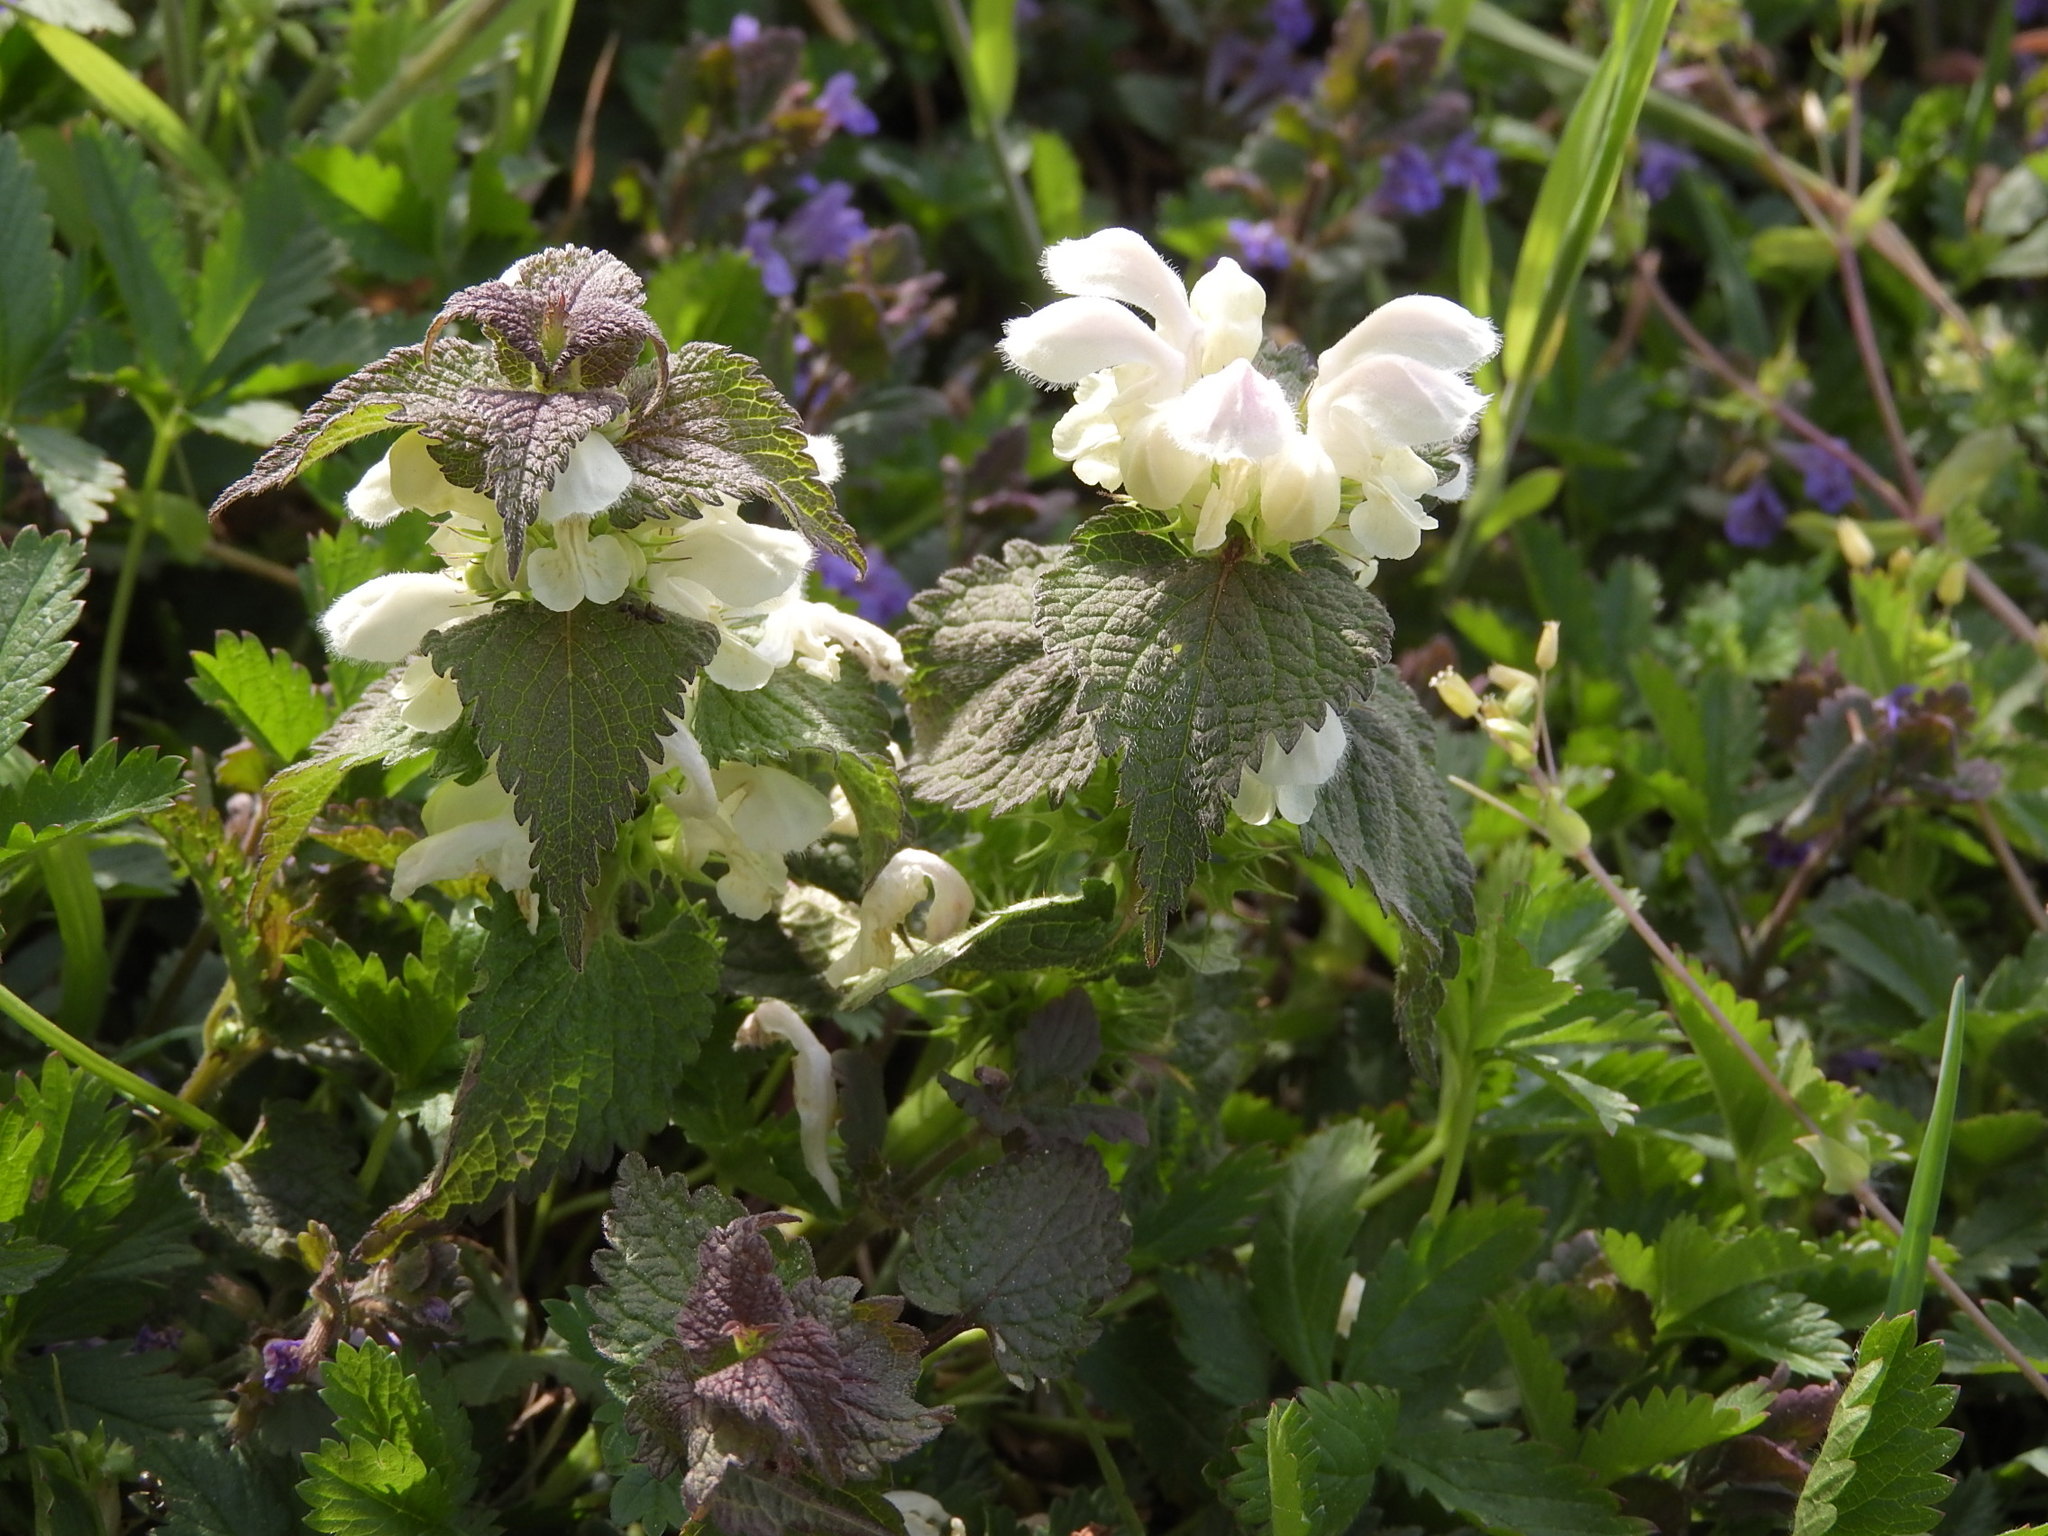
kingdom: Plantae
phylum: Tracheophyta
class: Magnoliopsida
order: Lamiales
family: Lamiaceae
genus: Lamium
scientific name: Lamium album
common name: White dead-nettle
